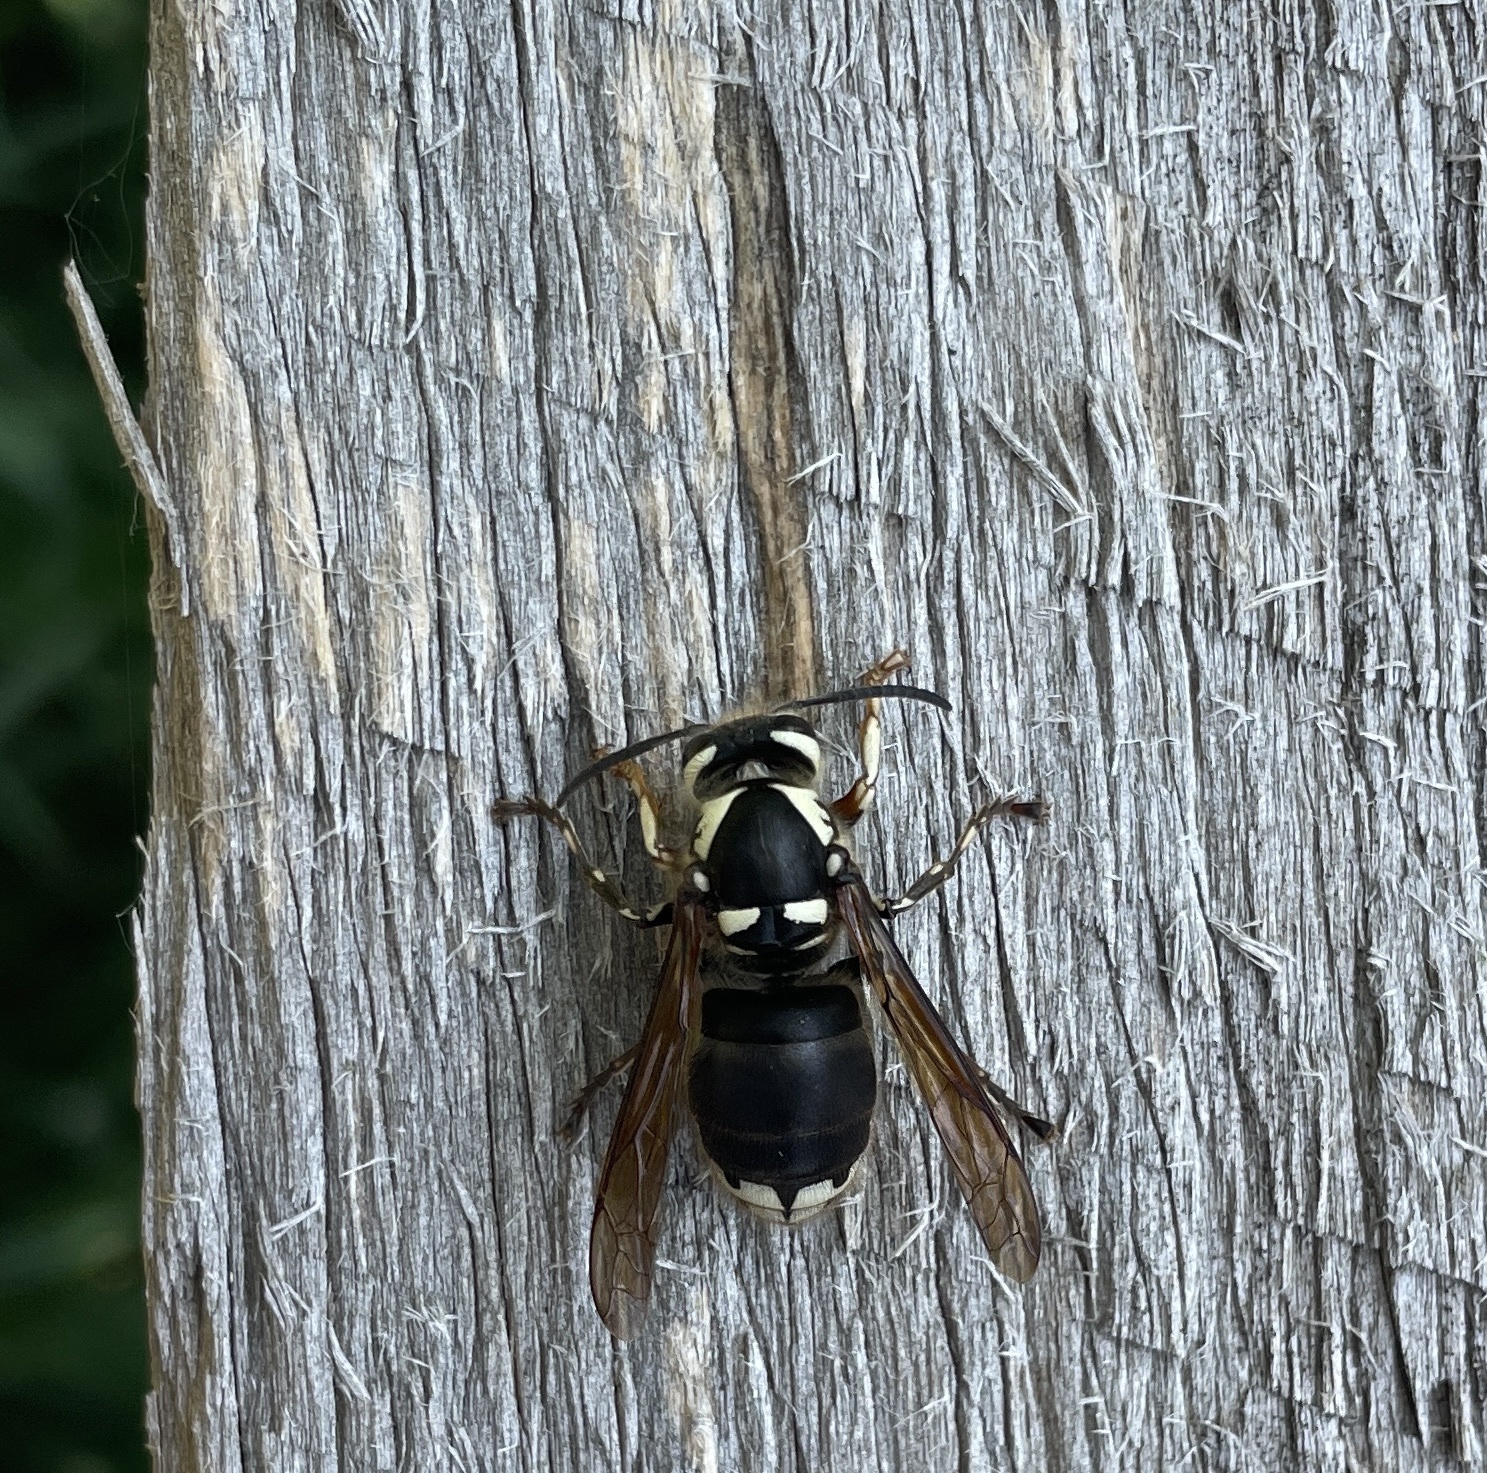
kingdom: Animalia
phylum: Arthropoda
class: Insecta
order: Hymenoptera
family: Vespidae
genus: Dolichovespula
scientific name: Dolichovespula maculata
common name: Bald-faced hornet
